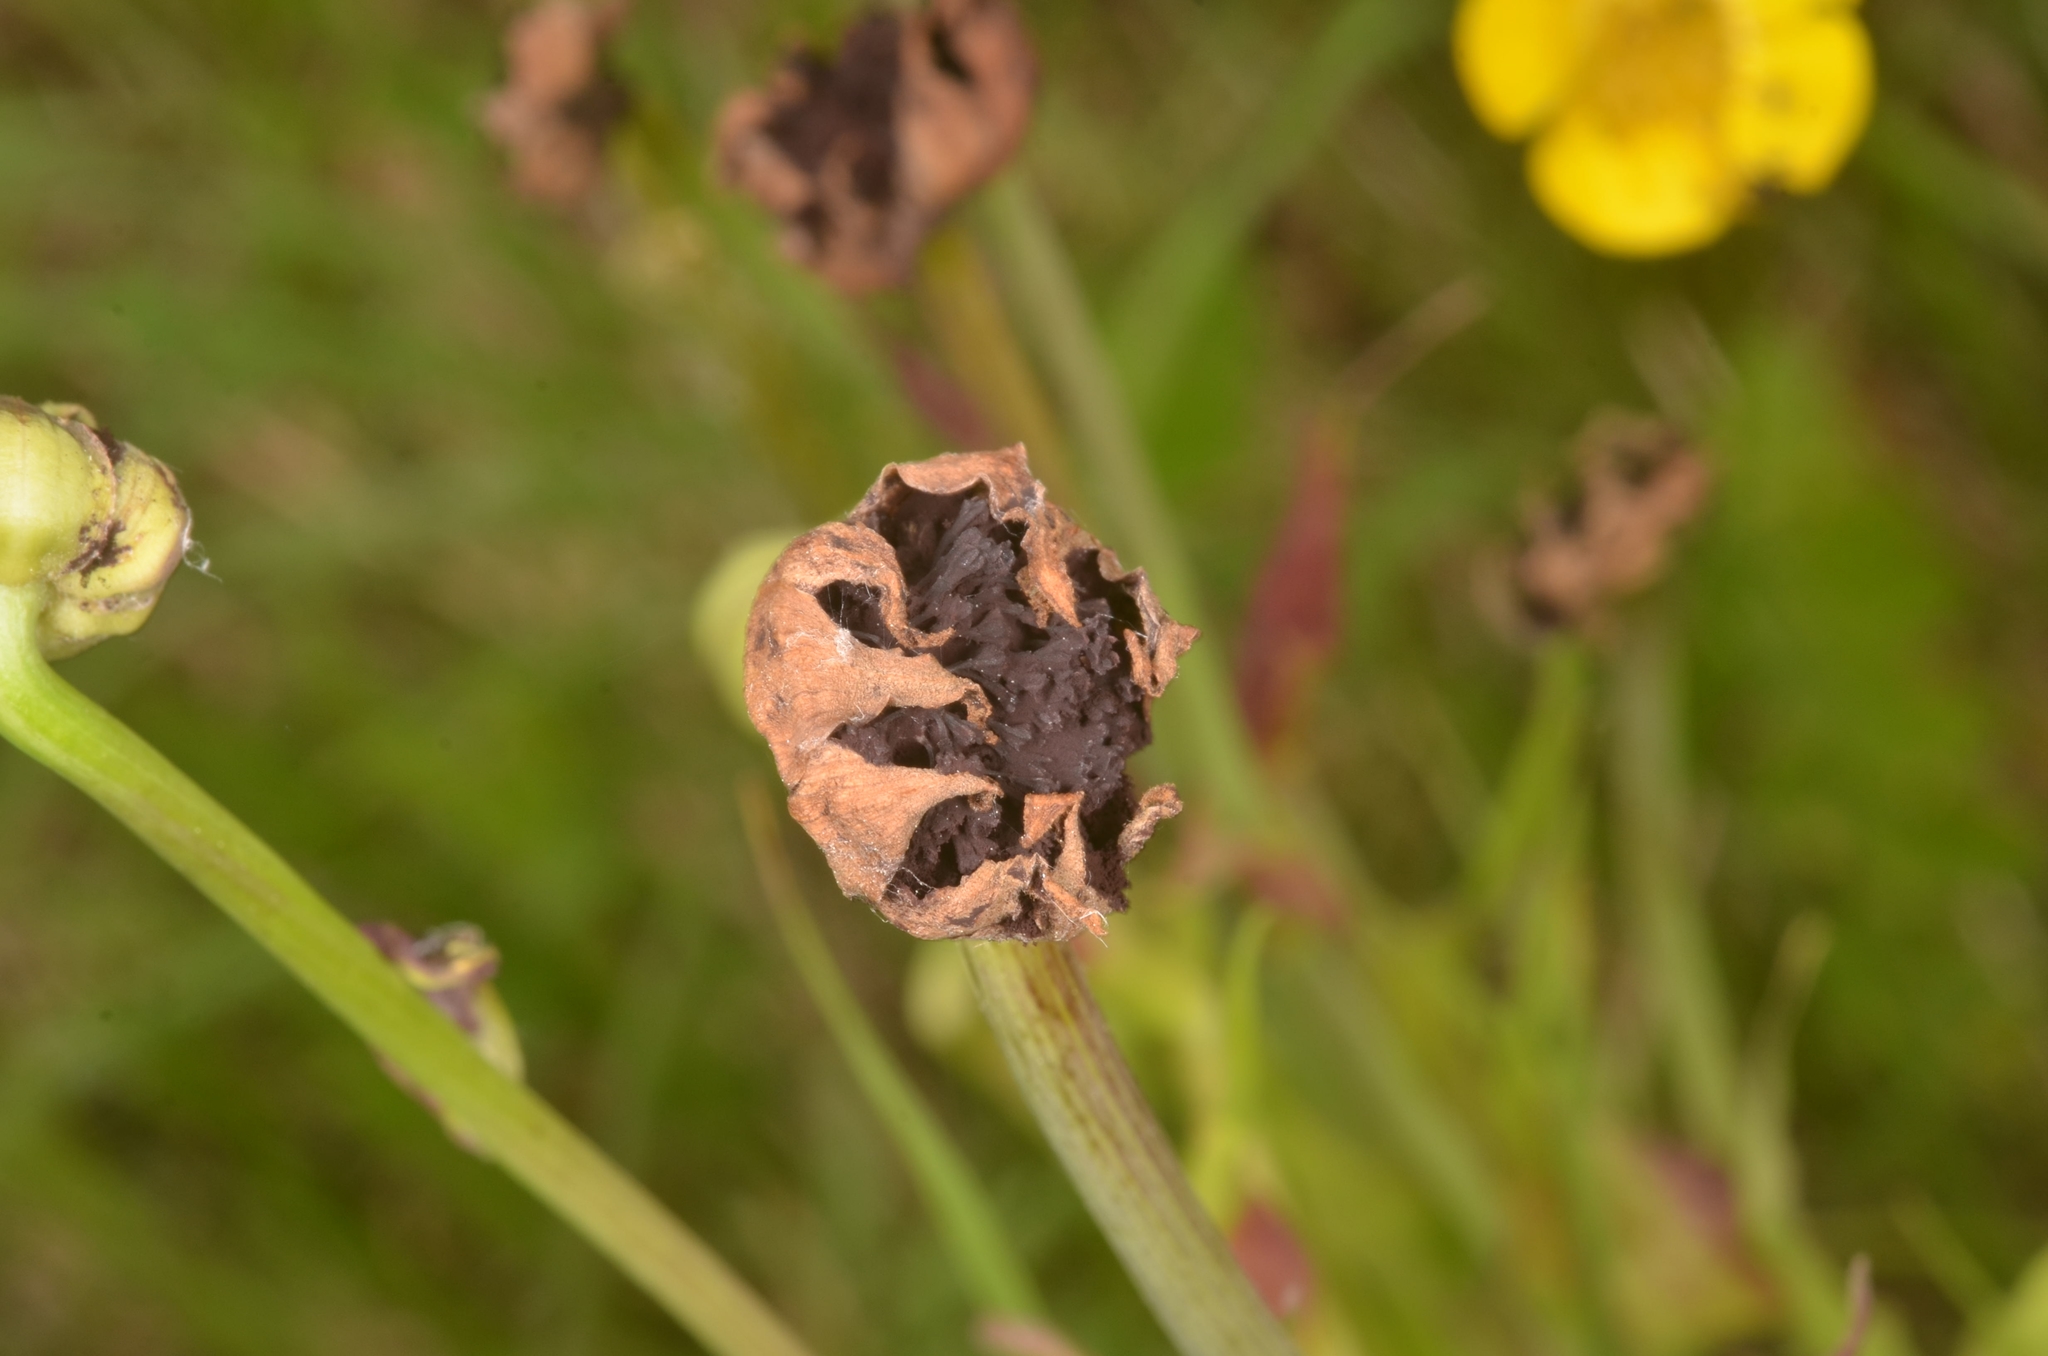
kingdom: Fungi
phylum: Basidiomycota
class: Microbotryomycetes
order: Microbotryales
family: Microbotryaceae
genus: Microbotryum
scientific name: Microbotryum tragopogonis-pratensis
